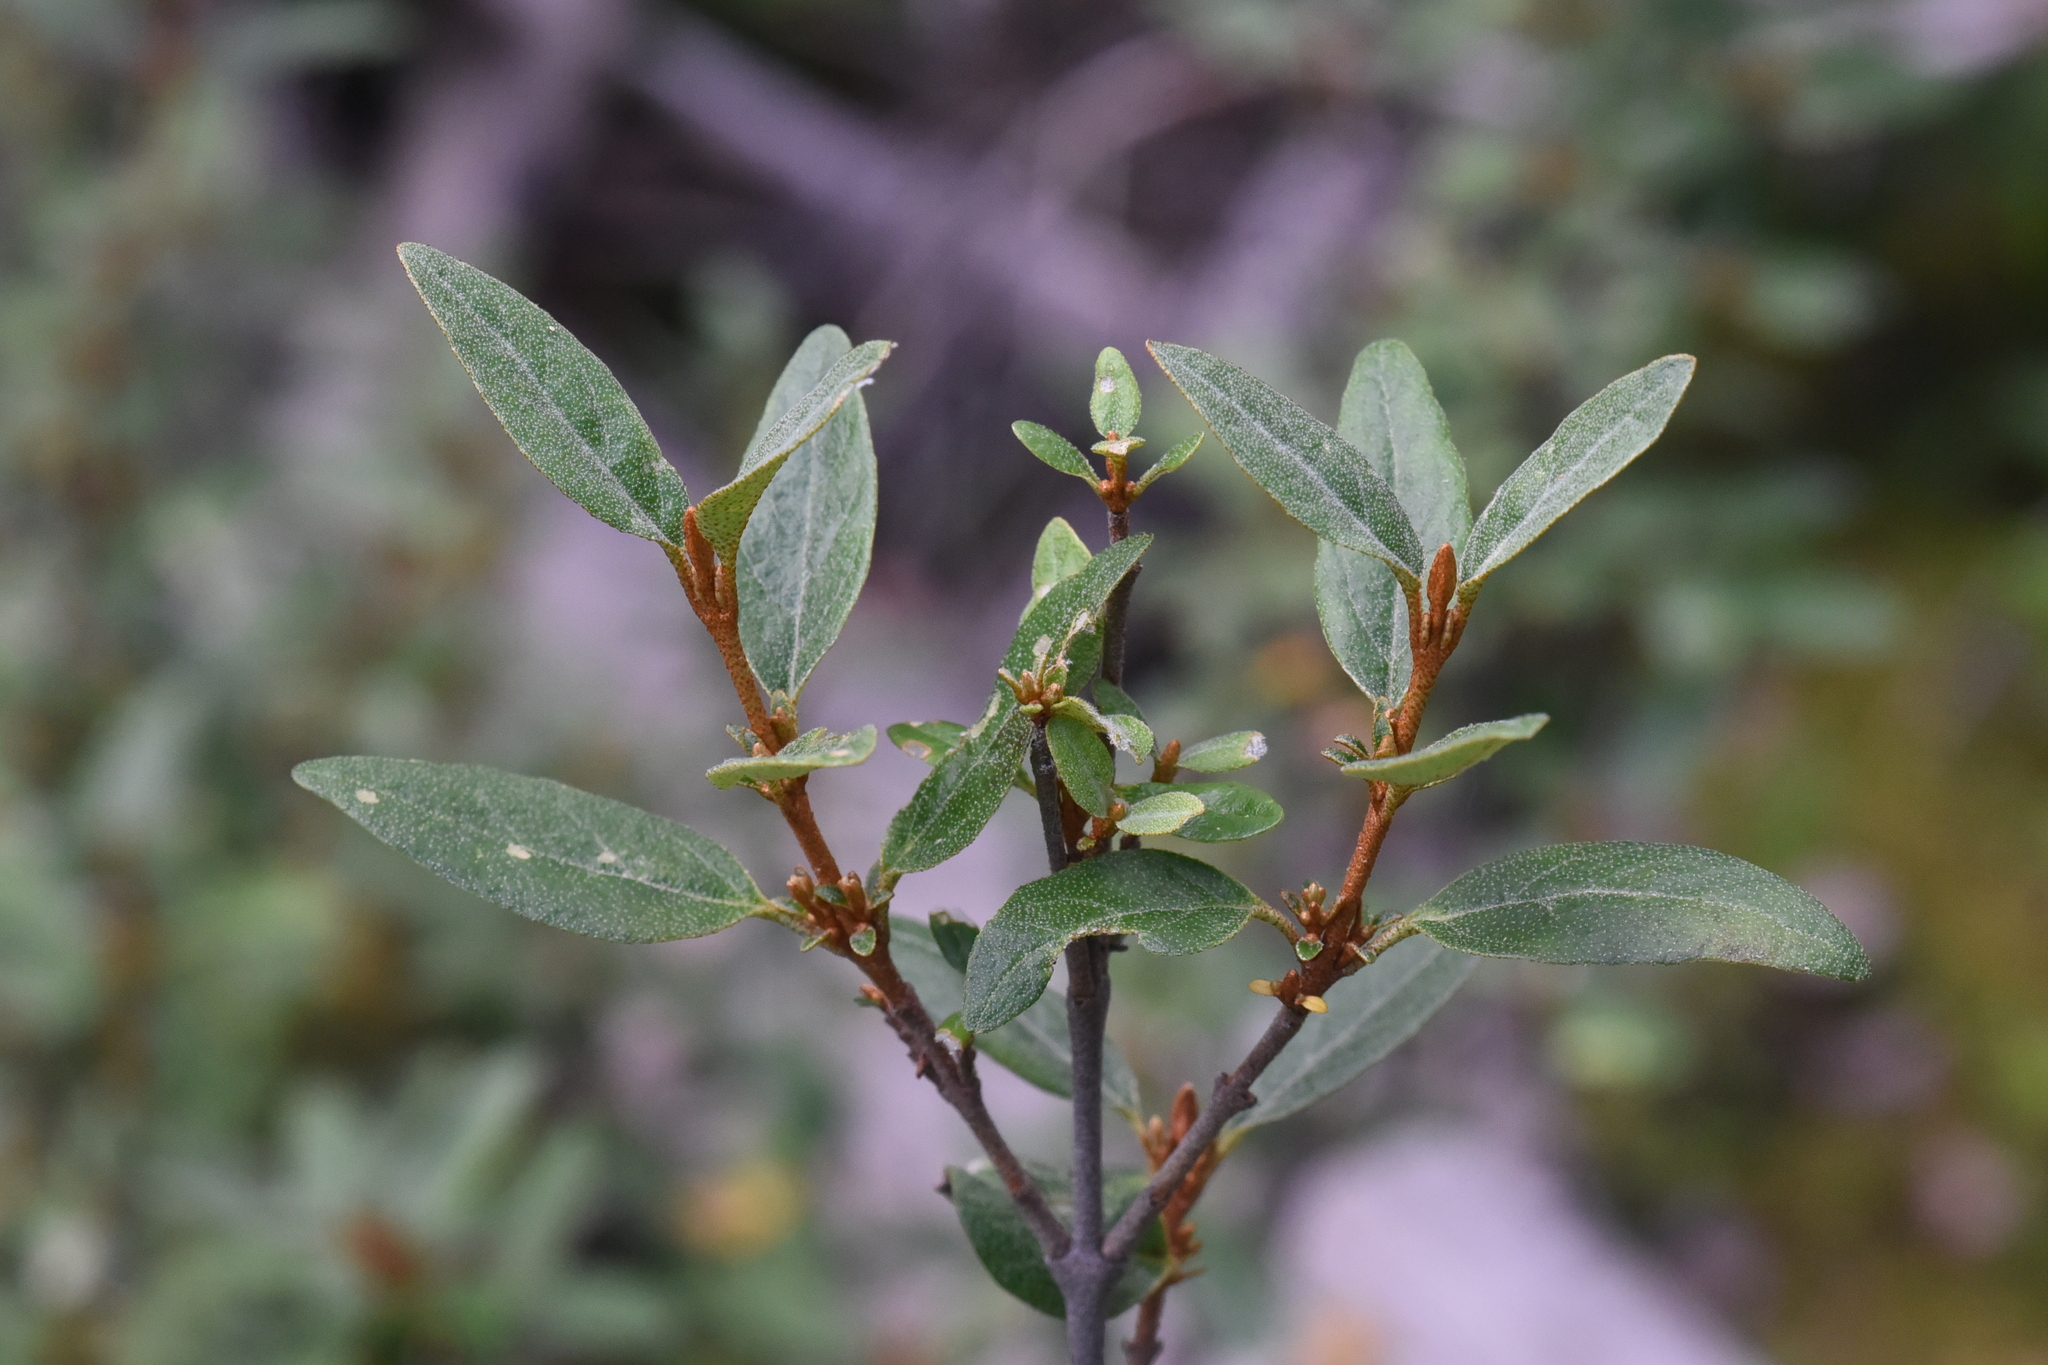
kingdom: Plantae
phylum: Tracheophyta
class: Magnoliopsida
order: Rosales
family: Elaeagnaceae
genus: Shepherdia
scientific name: Shepherdia canadensis
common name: Soapberry
